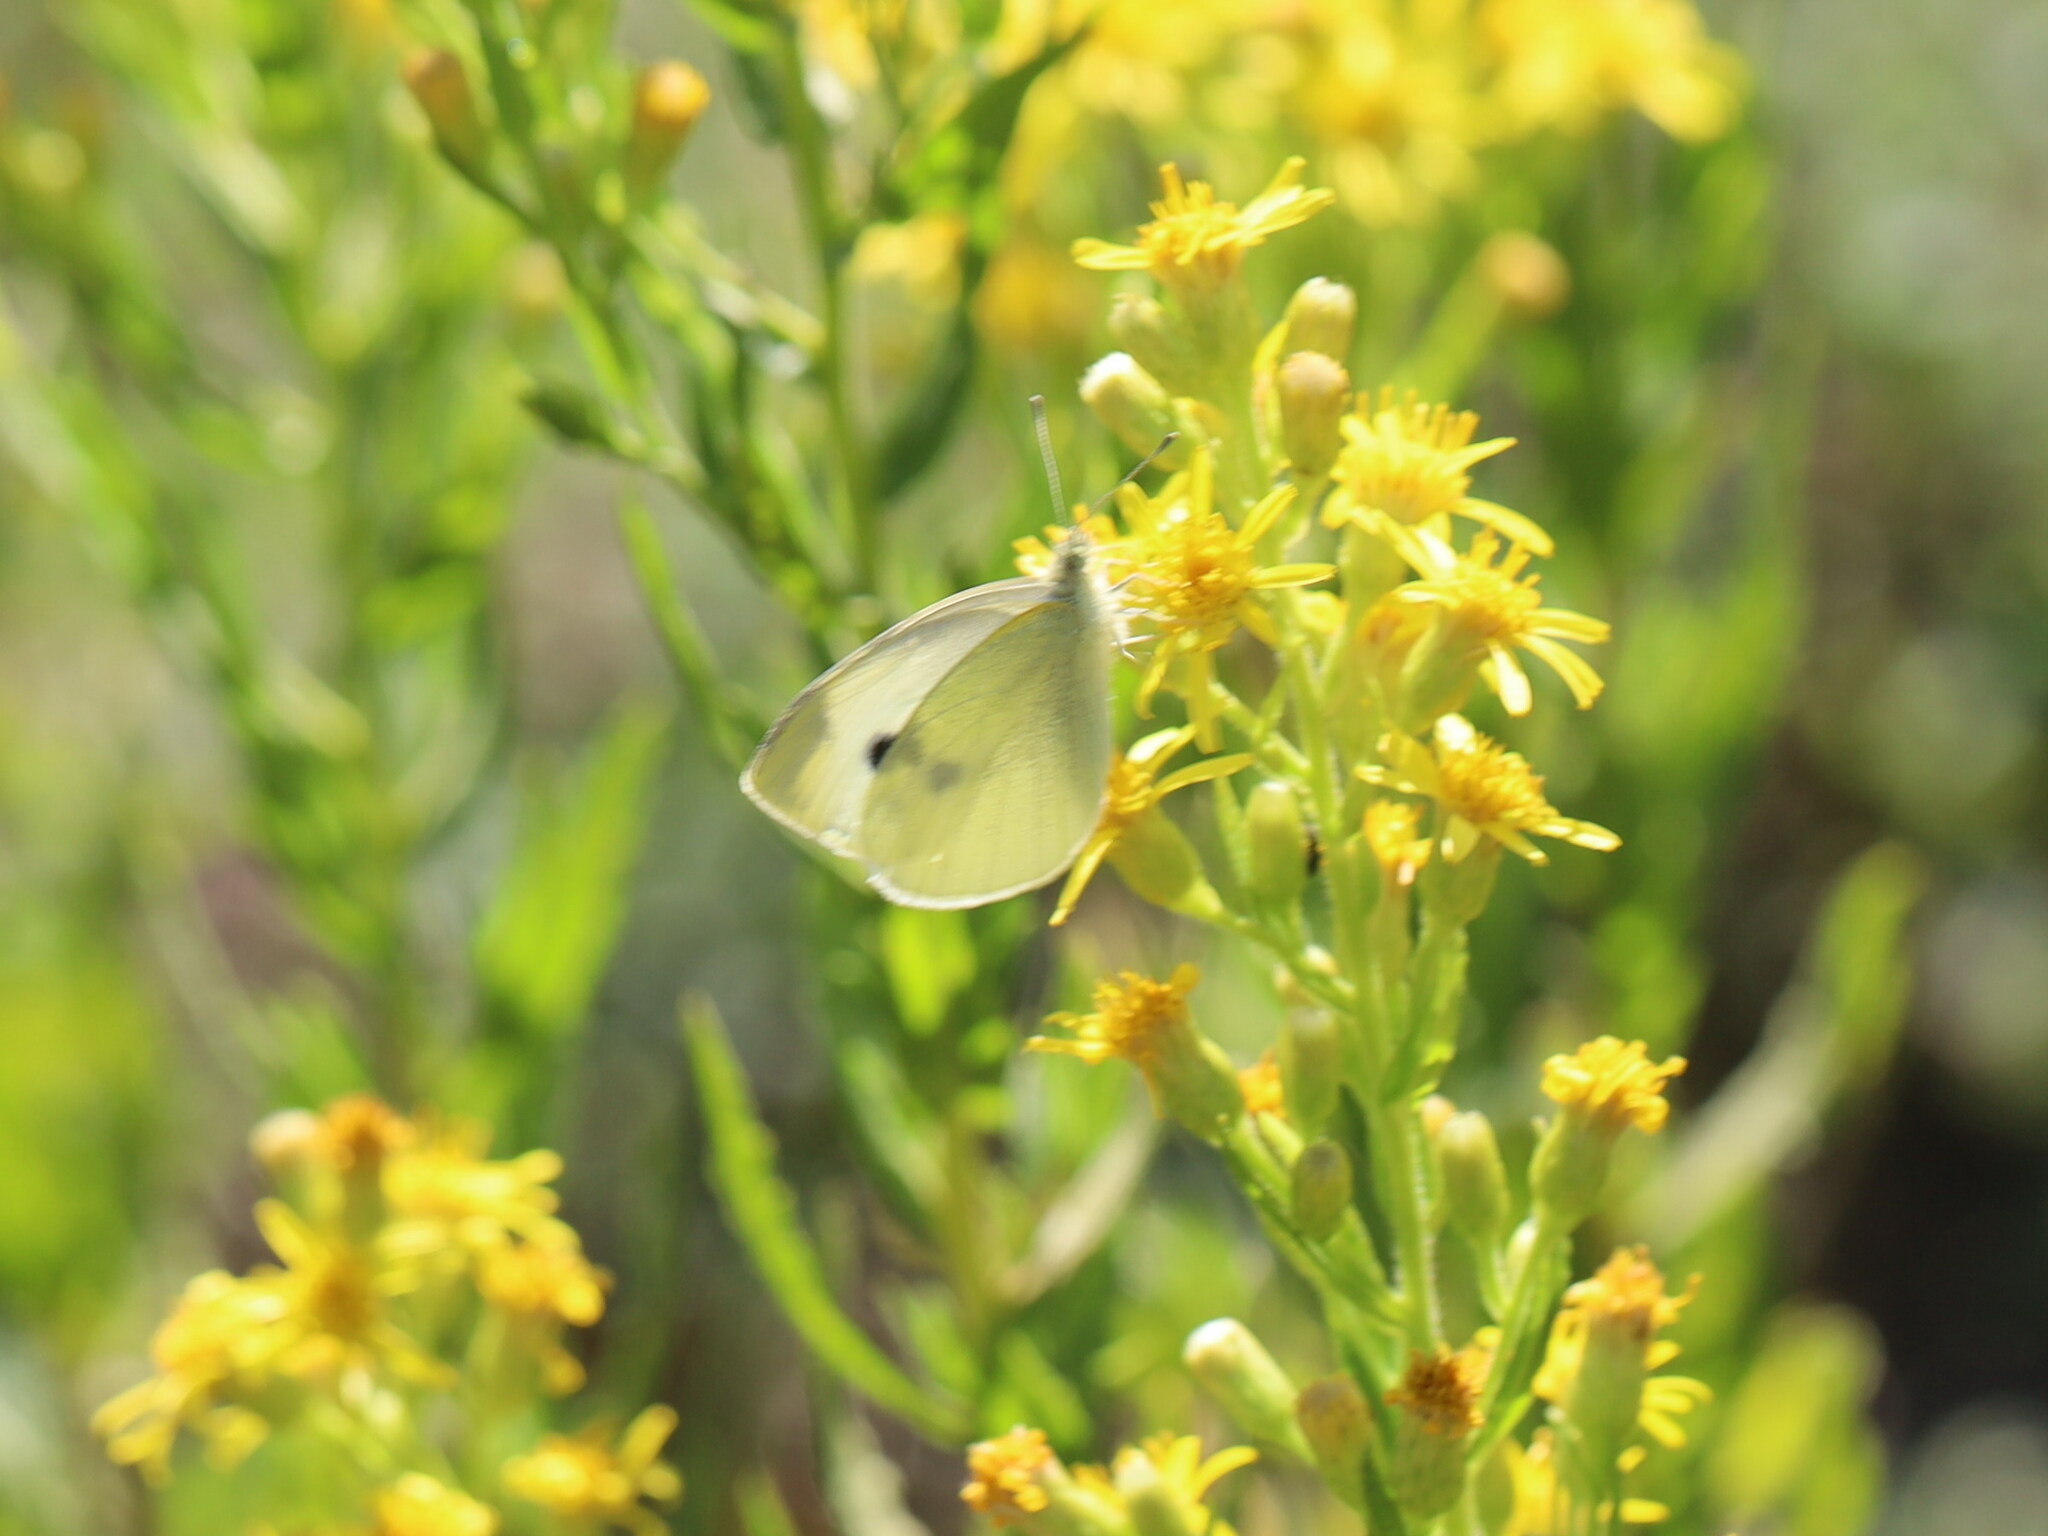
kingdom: Animalia
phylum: Arthropoda
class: Insecta
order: Lepidoptera
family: Pieridae
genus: Pieris
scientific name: Pieris rapae
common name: Small white
